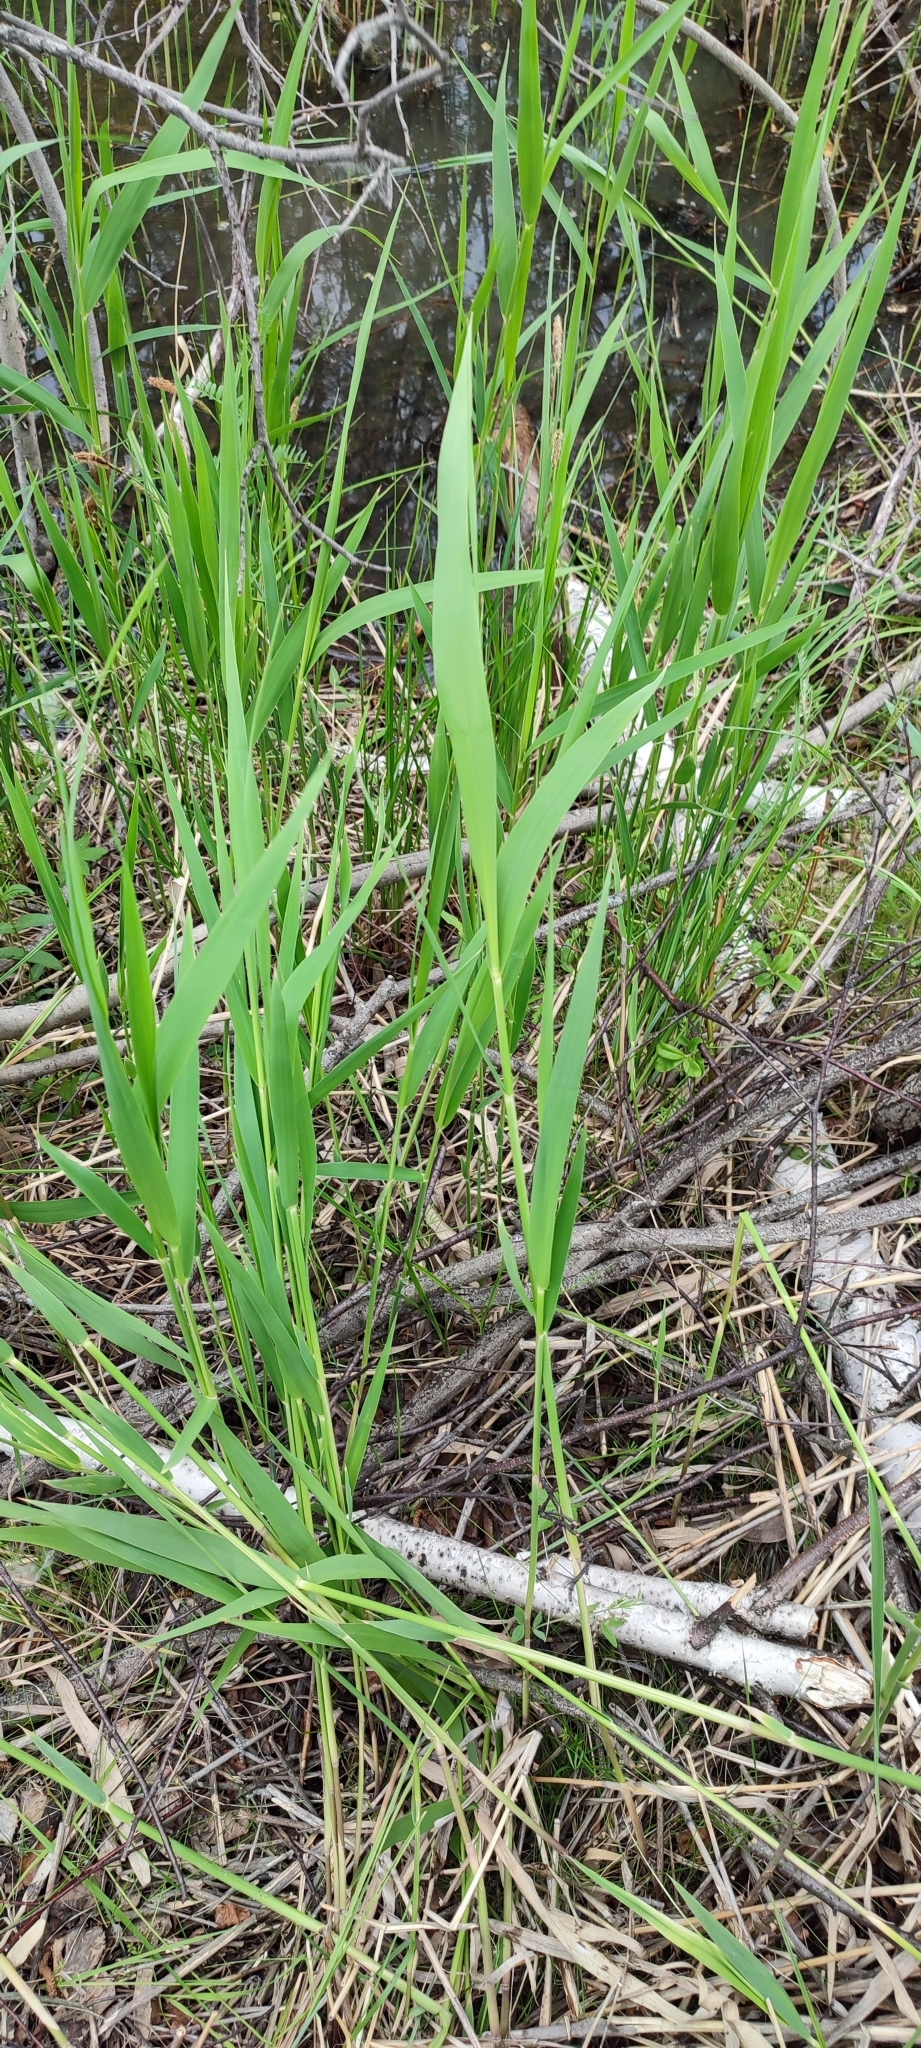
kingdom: Plantae
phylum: Tracheophyta
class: Liliopsida
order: Poales
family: Poaceae
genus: Phragmites
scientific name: Phragmites australis
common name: Common reed
